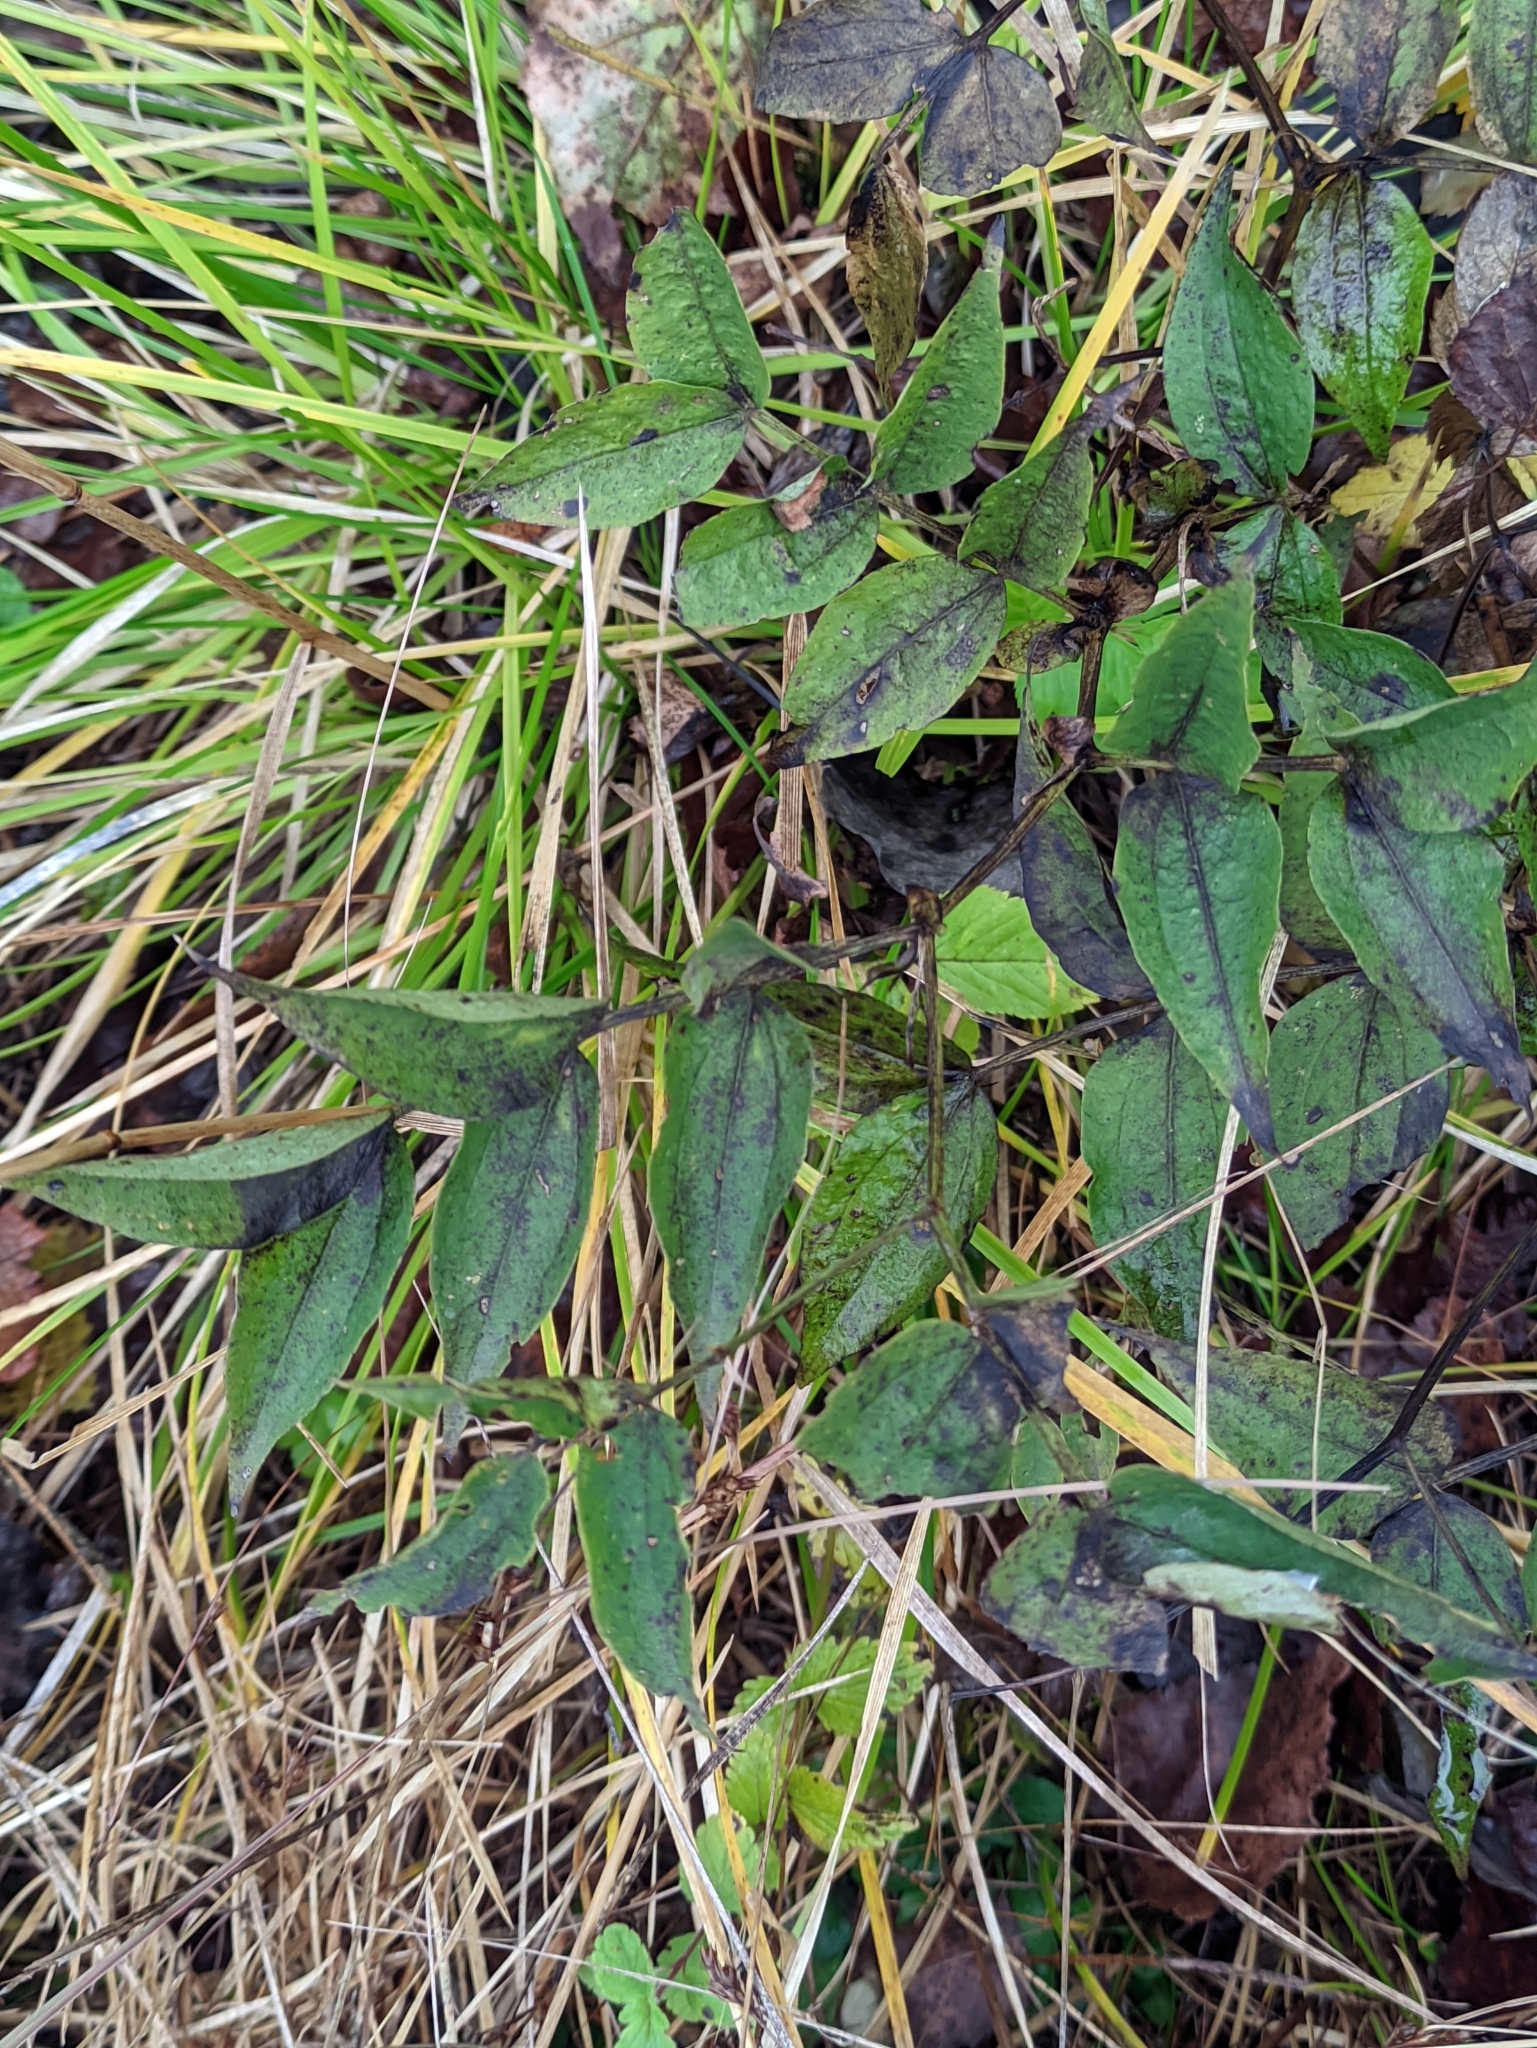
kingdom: Plantae
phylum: Tracheophyta
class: Magnoliopsida
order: Fabales
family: Fabaceae
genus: Lathyrus
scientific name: Lathyrus vernus
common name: Spring pea
